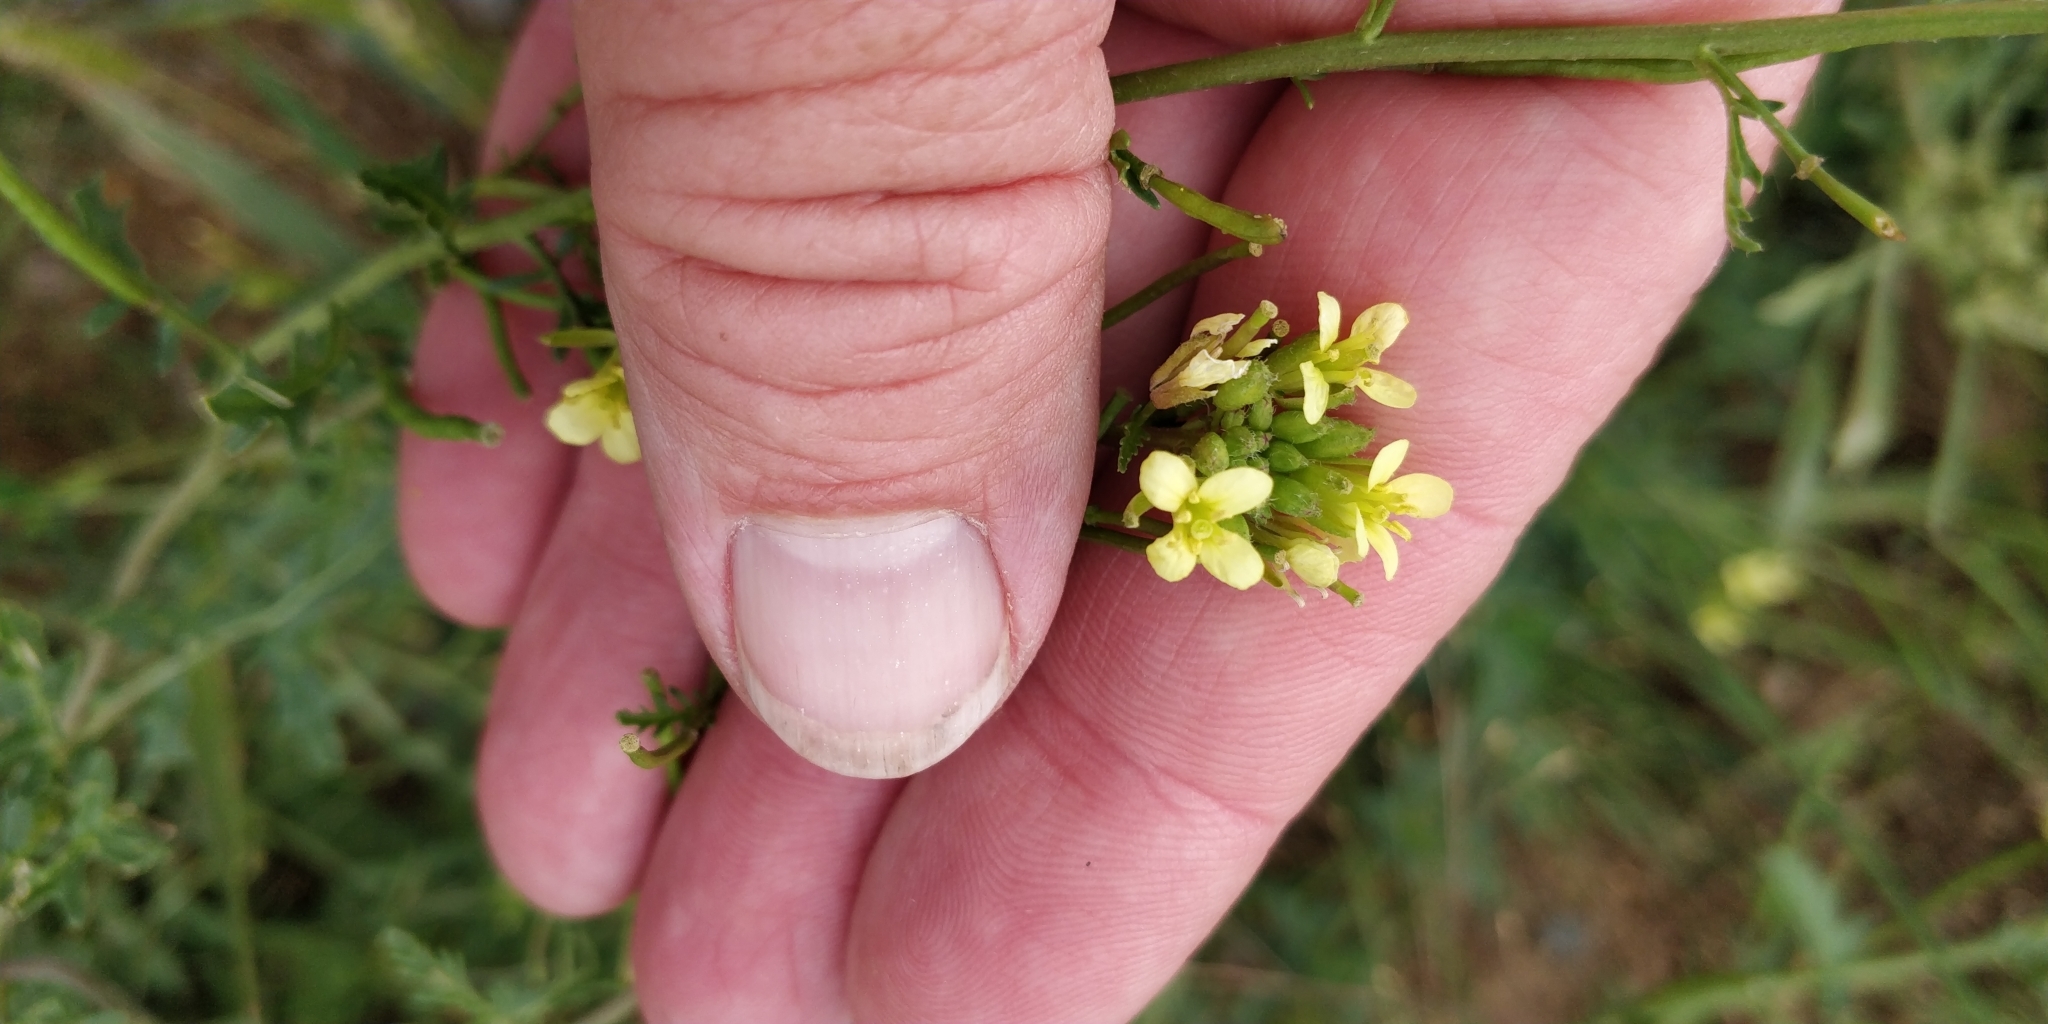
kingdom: Plantae
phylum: Tracheophyta
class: Magnoliopsida
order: Brassicales
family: Brassicaceae
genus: Erucastrum
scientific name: Erucastrum gallicum
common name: Hairy rocket
